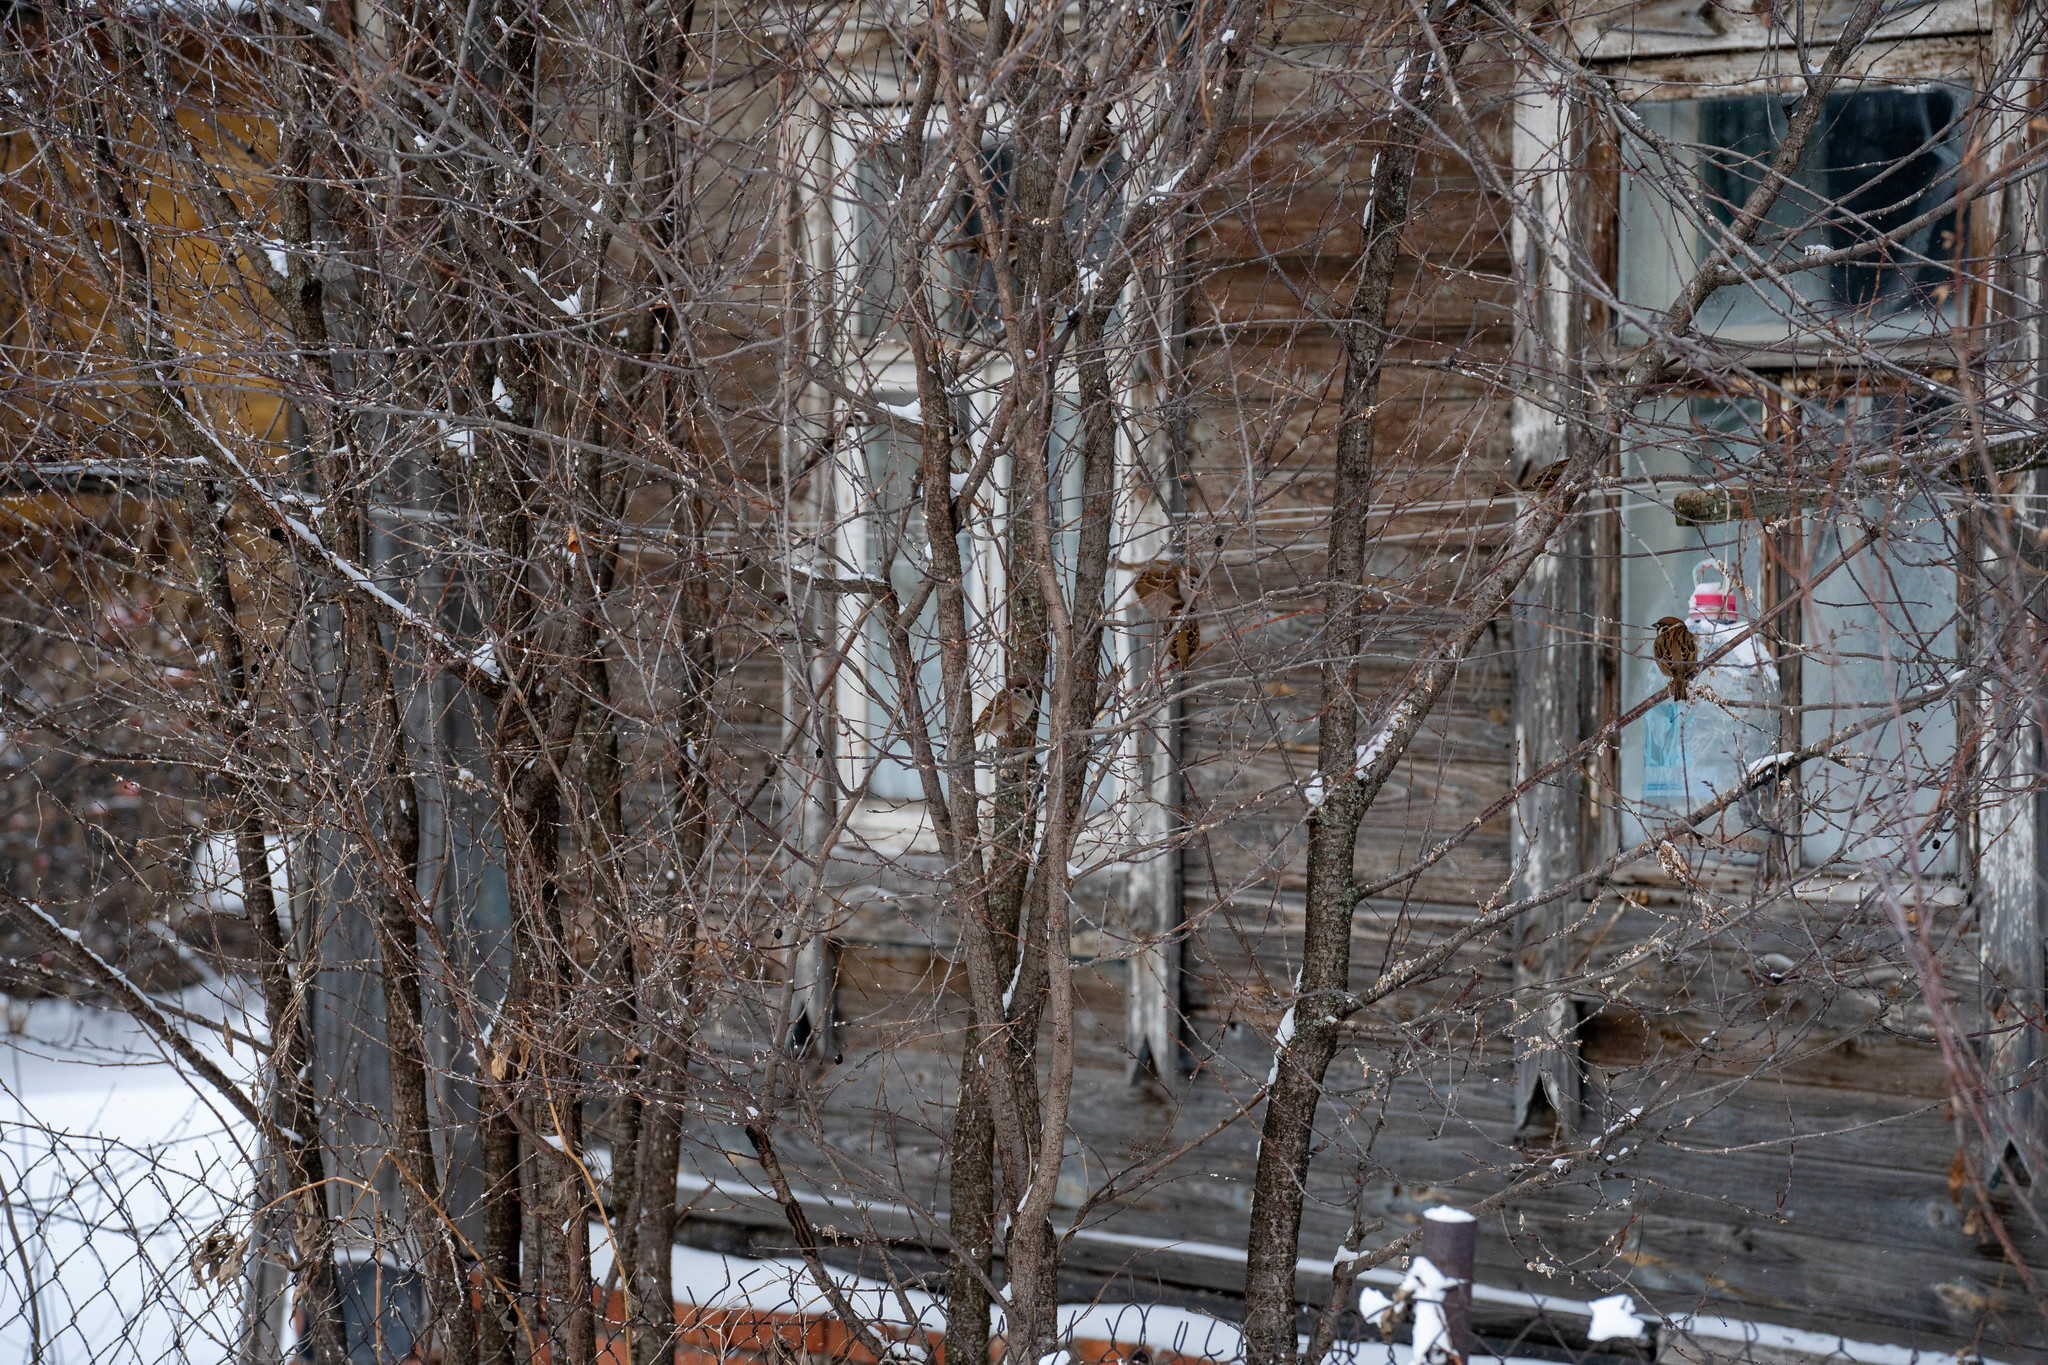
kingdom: Animalia
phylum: Chordata
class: Aves
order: Passeriformes
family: Passeridae
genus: Passer
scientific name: Passer montanus
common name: Eurasian tree sparrow
